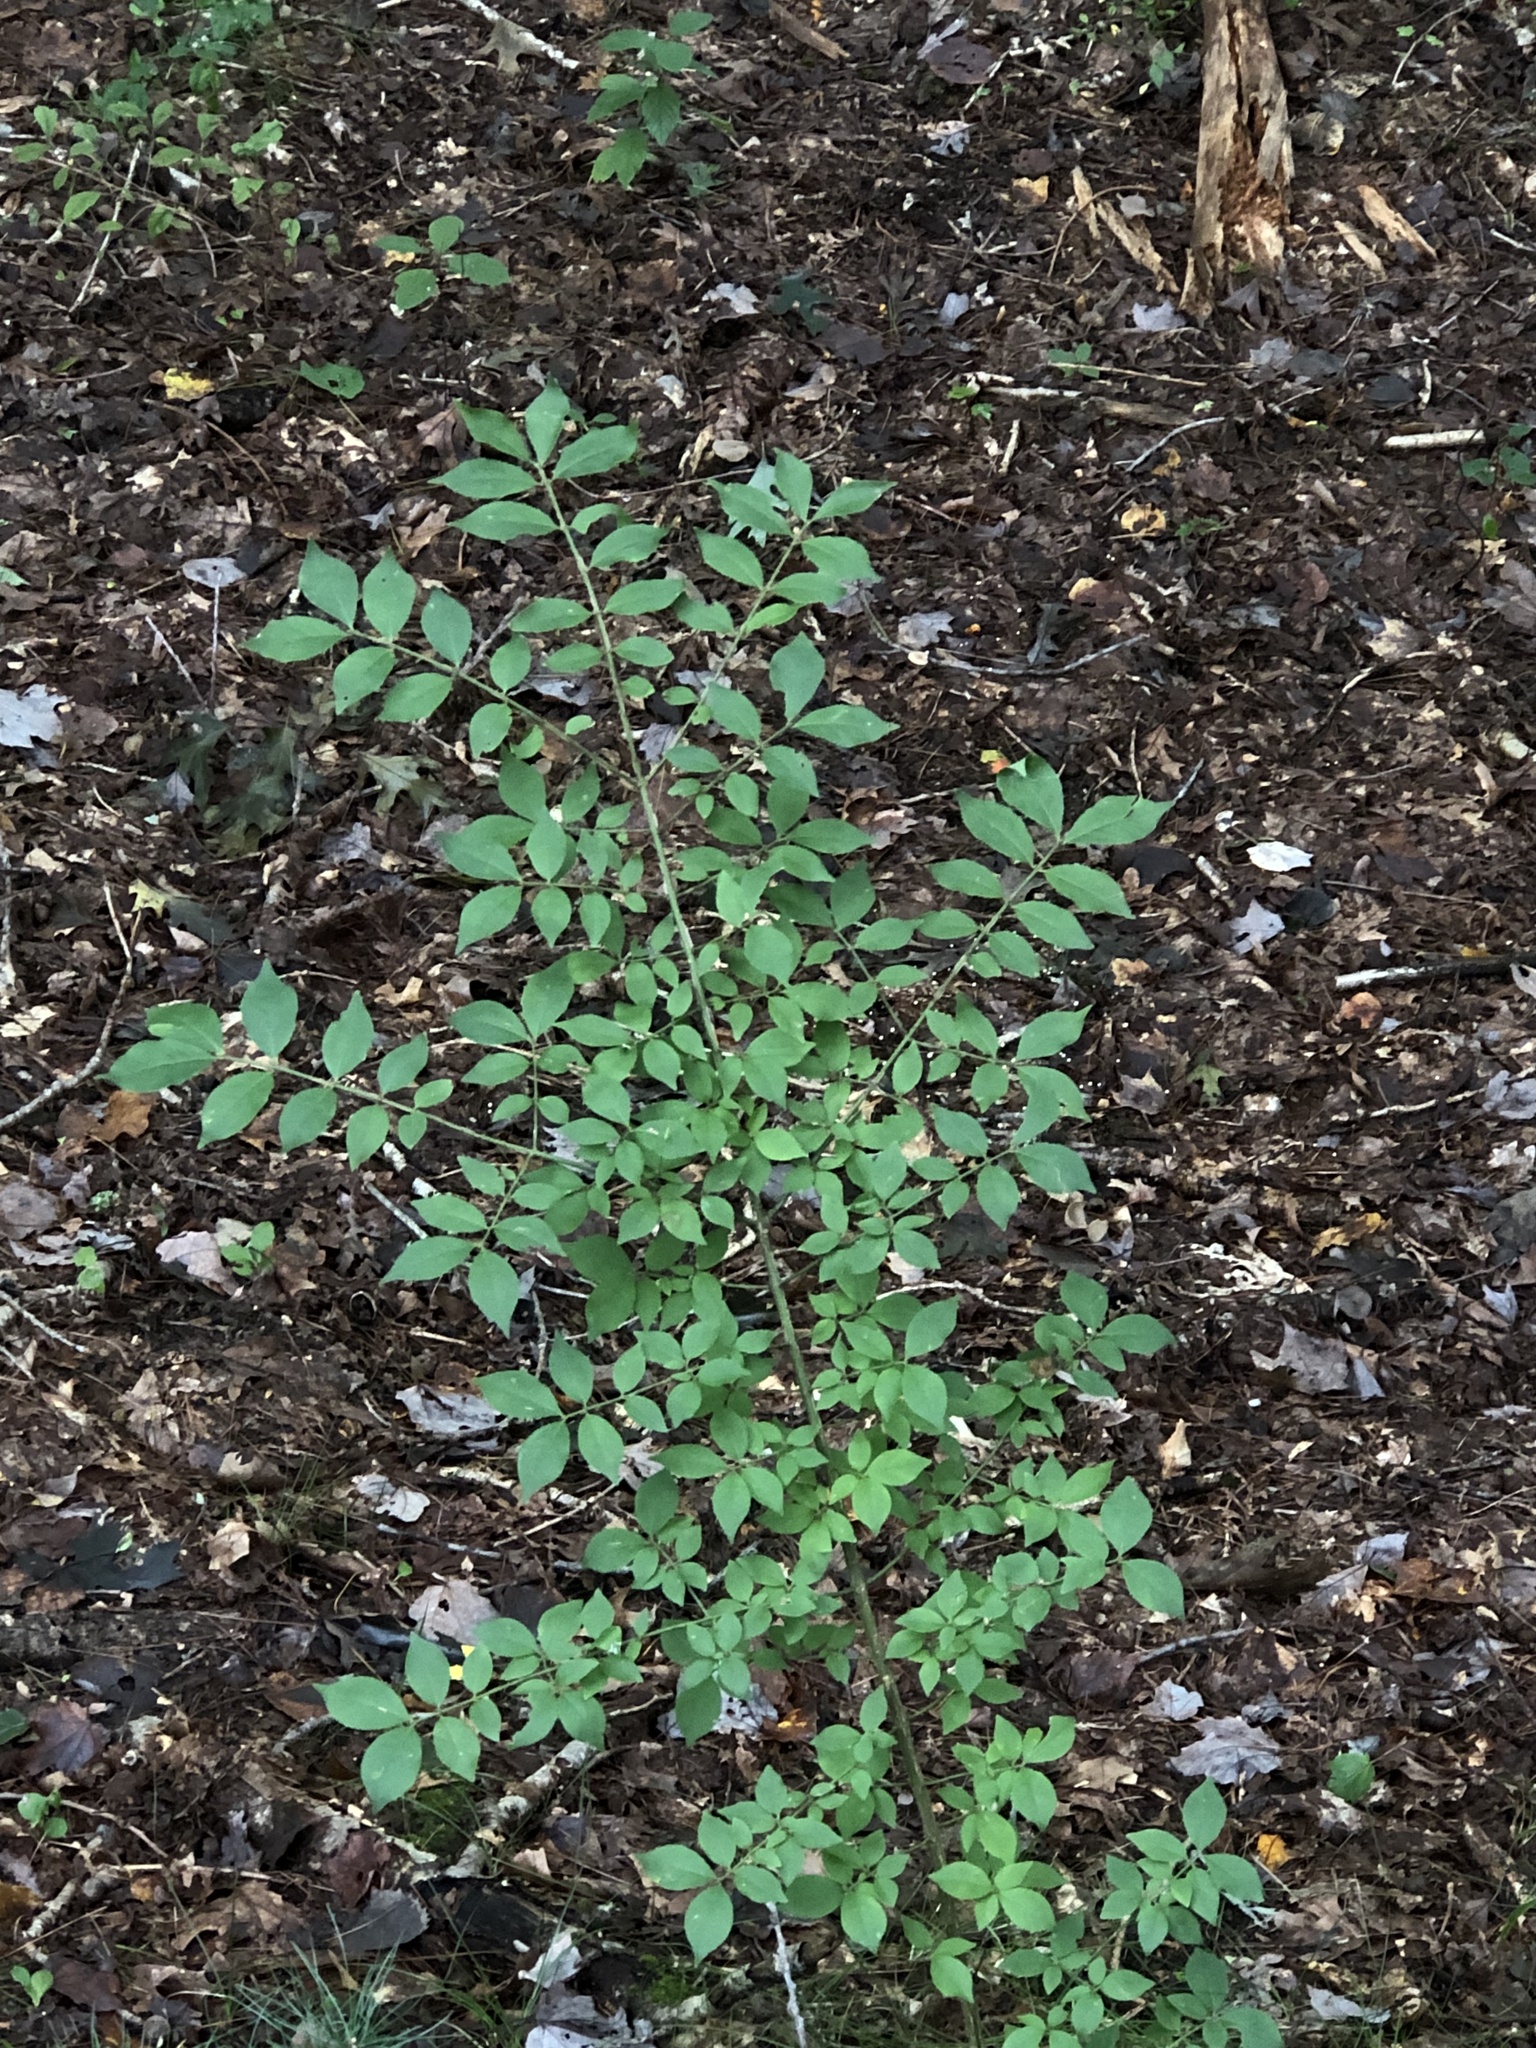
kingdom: Plantae
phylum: Tracheophyta
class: Magnoliopsida
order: Celastrales
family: Celastraceae
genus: Euonymus
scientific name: Euonymus alatus
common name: Winged euonymus
